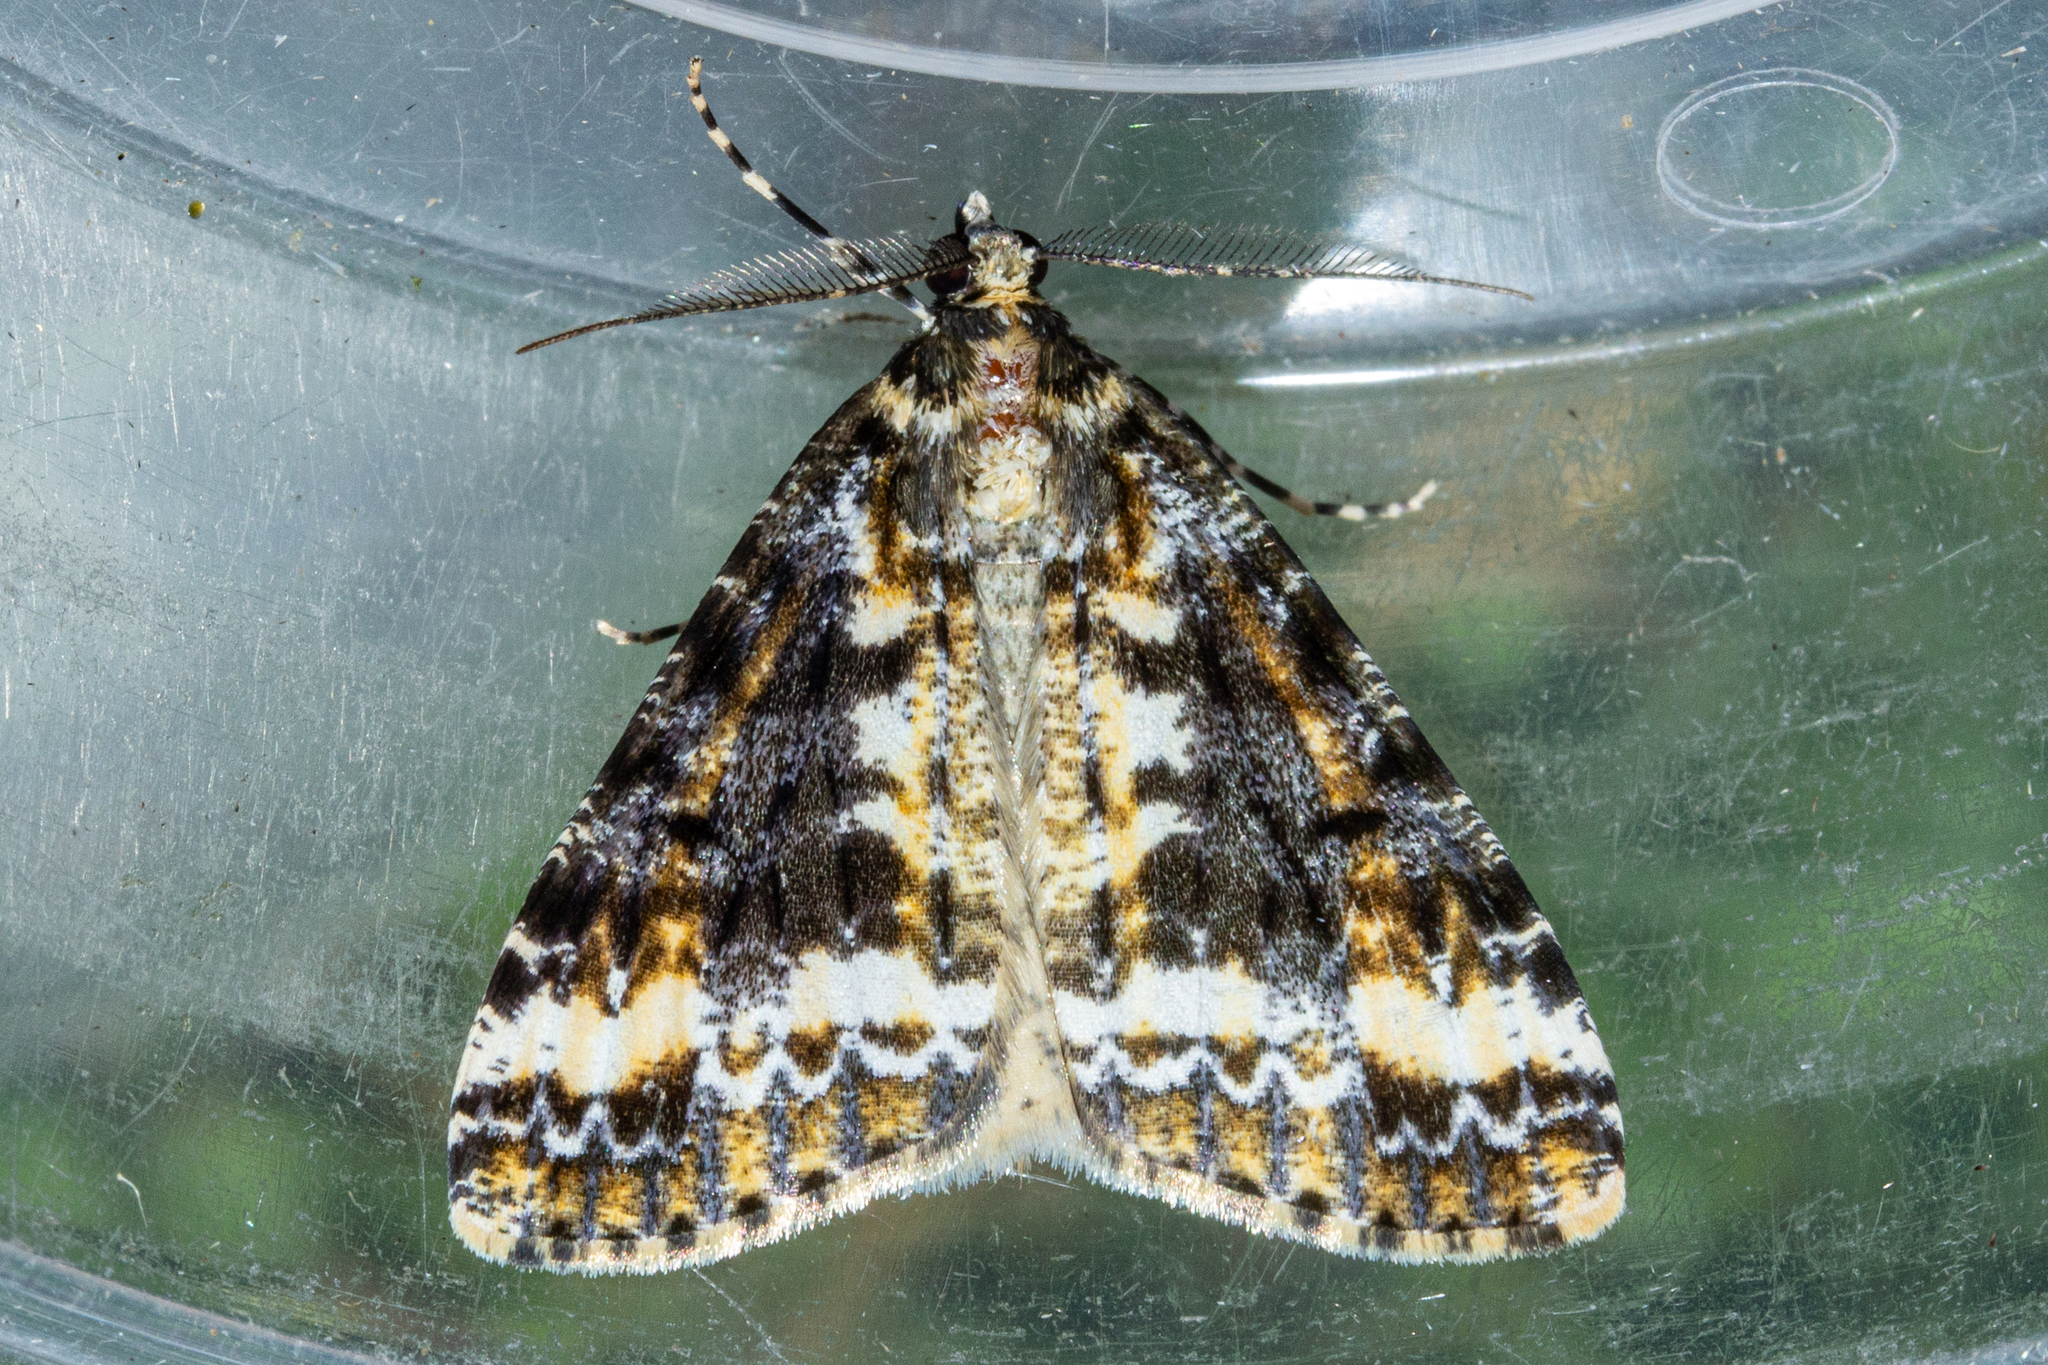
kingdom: Animalia
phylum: Arthropoda
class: Insecta
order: Lepidoptera
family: Geometridae
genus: Pseudocoremia
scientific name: Pseudocoremia leucelaea
